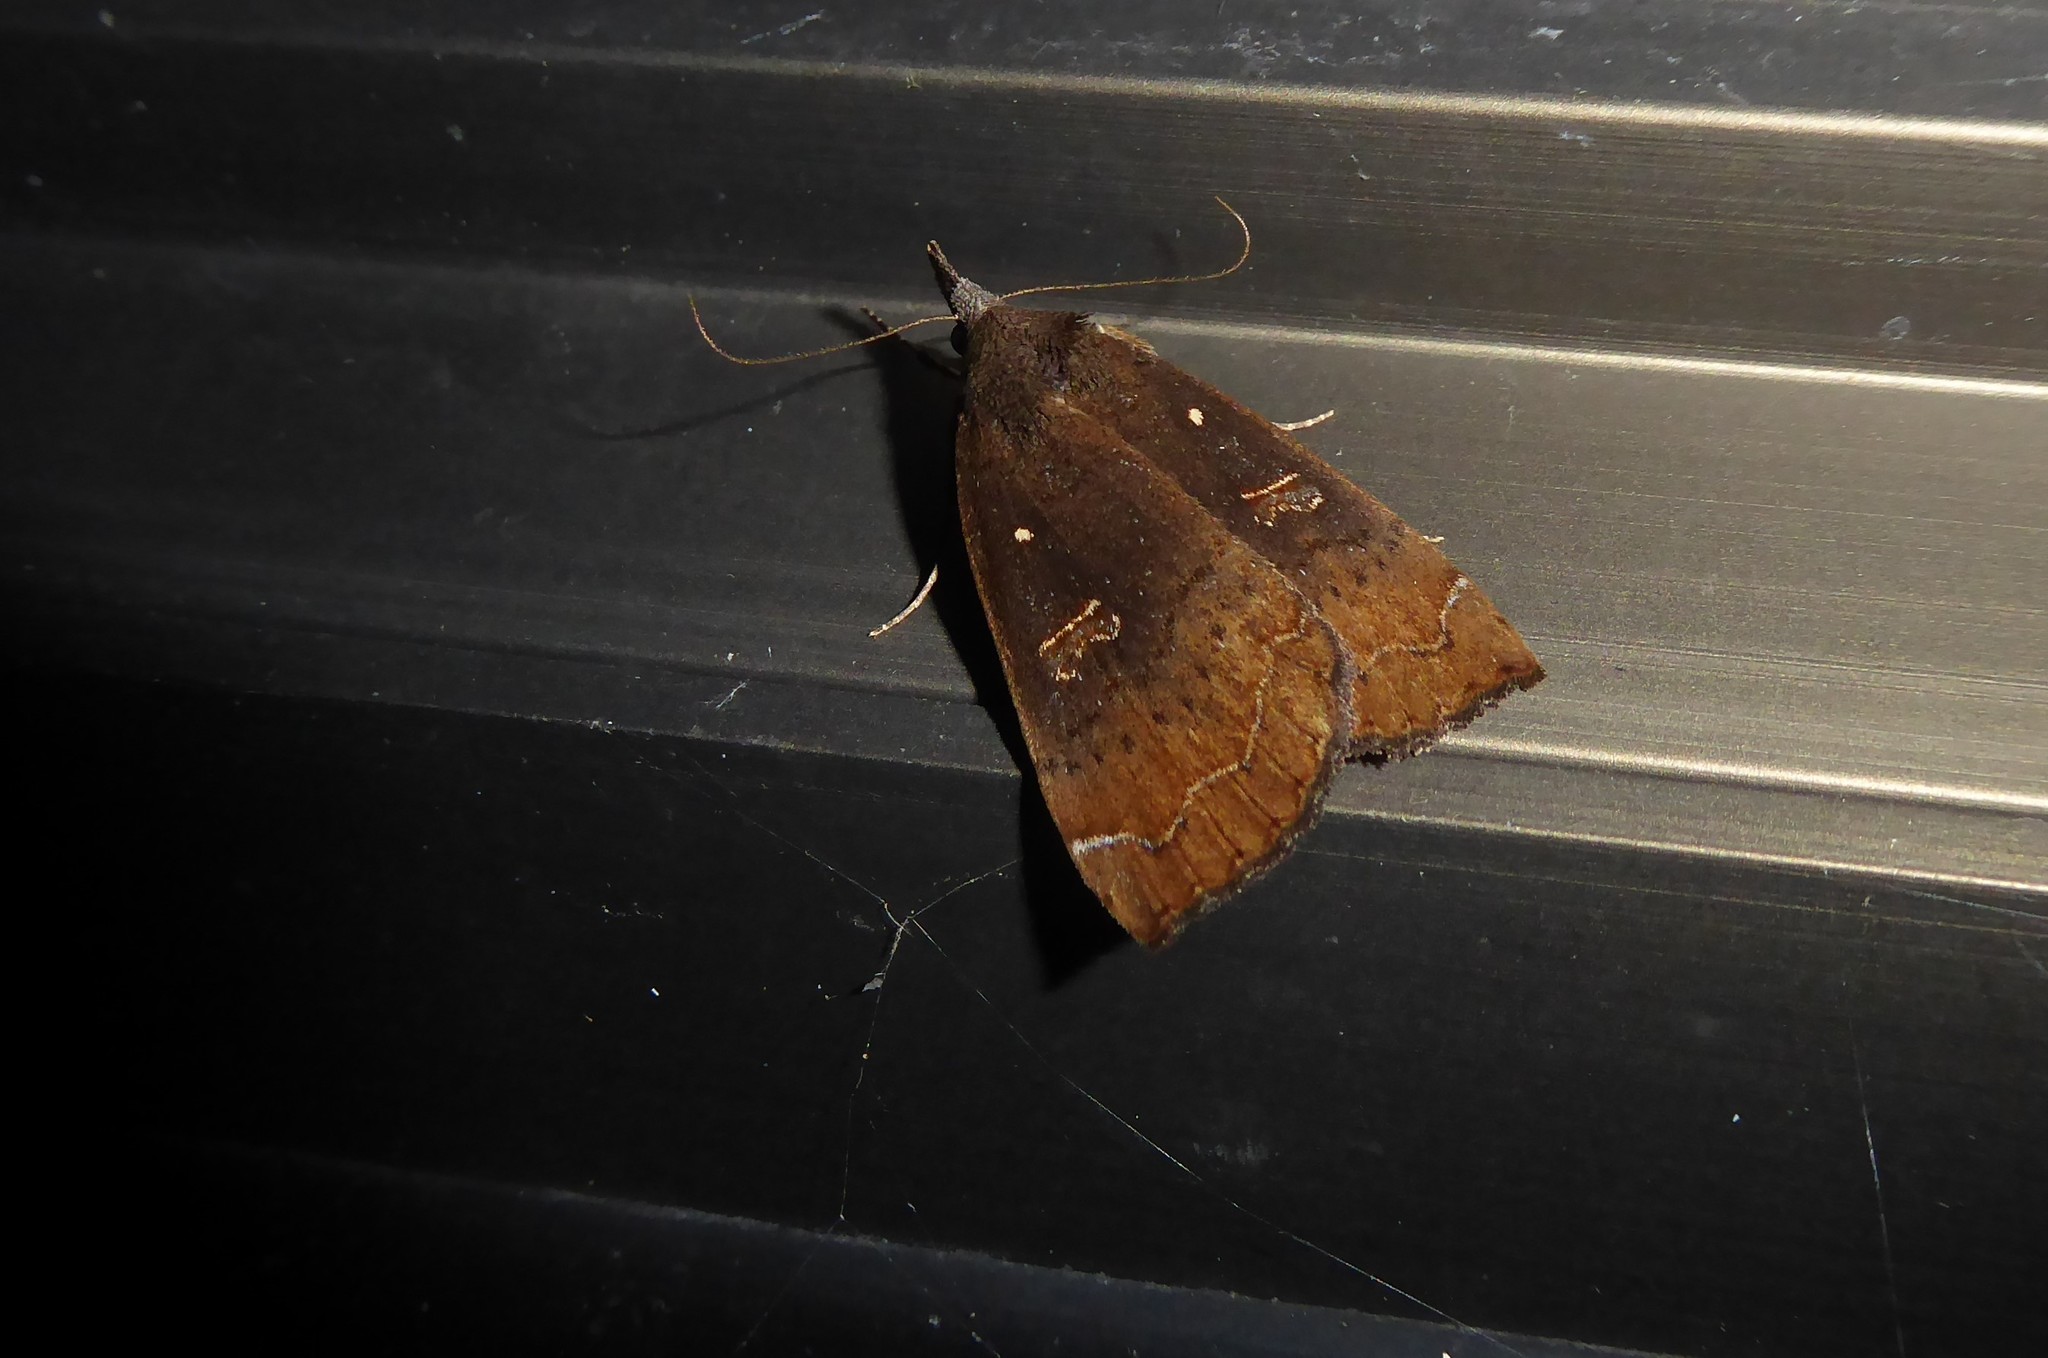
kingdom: Animalia
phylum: Arthropoda
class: Insecta
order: Lepidoptera
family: Erebidae
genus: Rhapsa
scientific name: Rhapsa scotosialis
